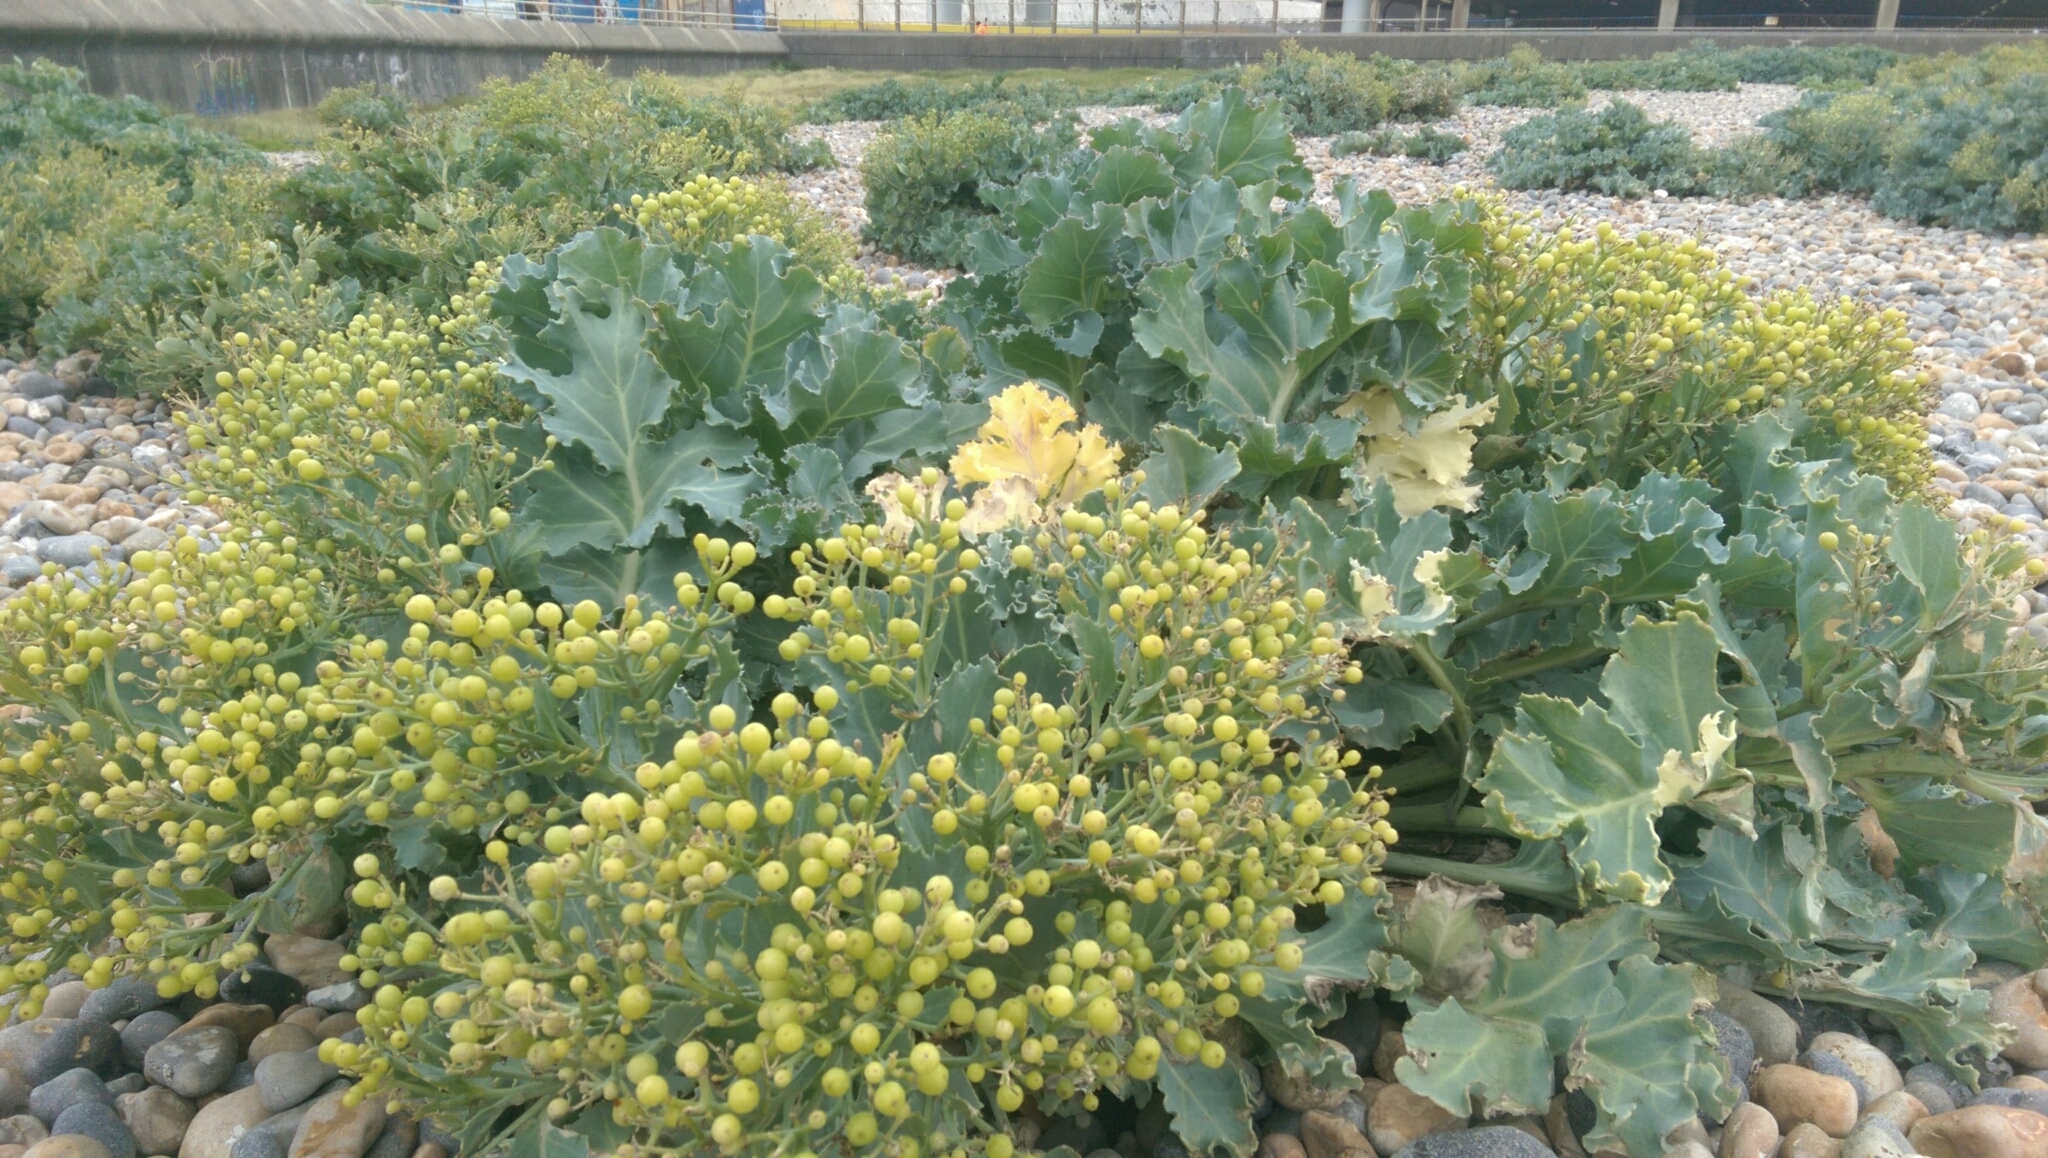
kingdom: Plantae
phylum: Tracheophyta
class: Magnoliopsida
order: Brassicales
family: Brassicaceae
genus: Crambe
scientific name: Crambe maritima
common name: Sea-kale
